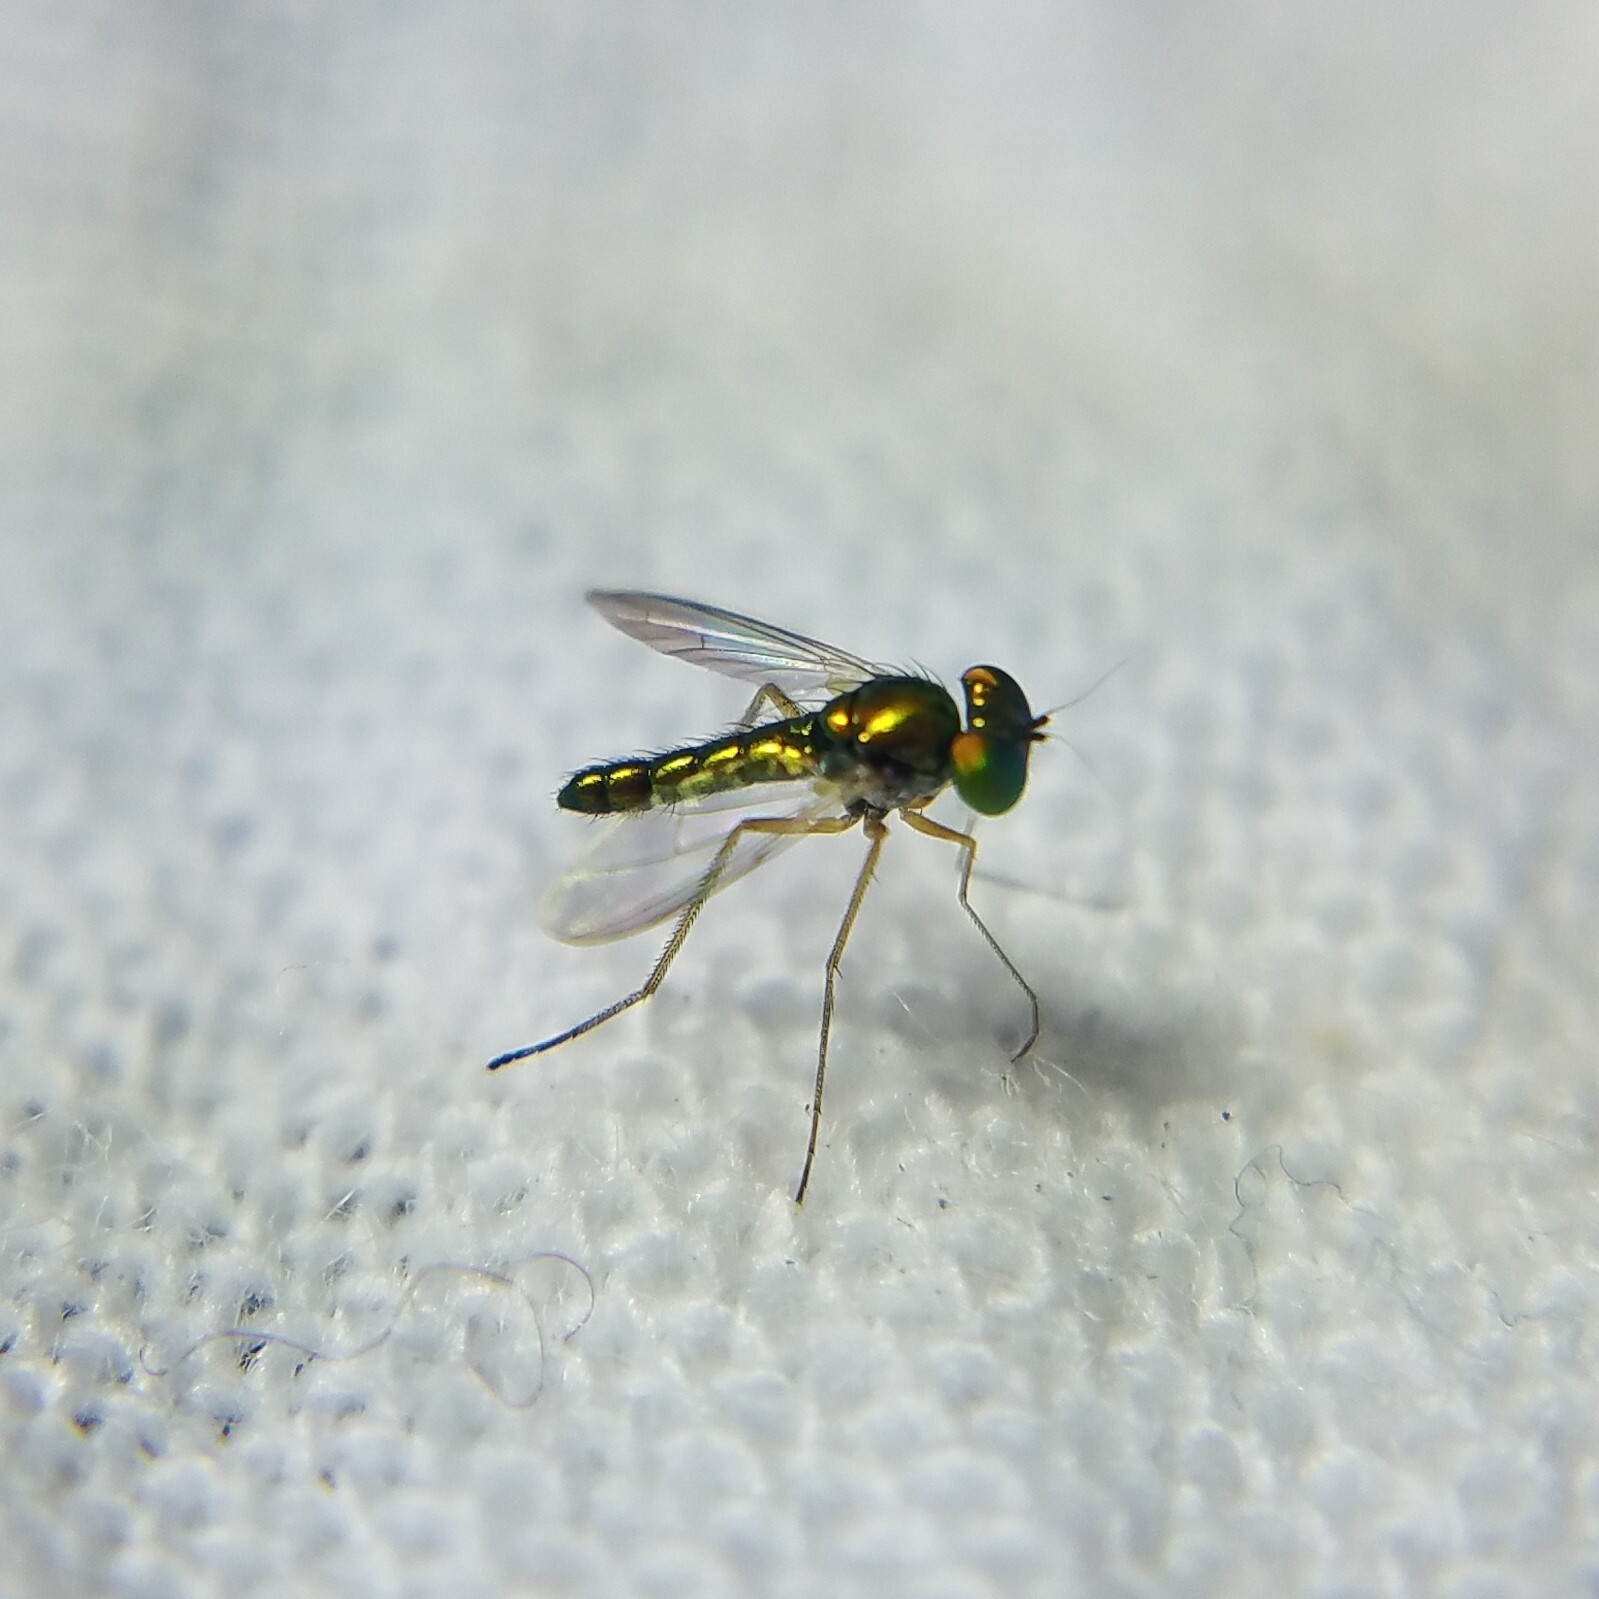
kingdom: Animalia
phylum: Arthropoda
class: Insecta
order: Diptera
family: Dolichopodidae
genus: Condylostylus
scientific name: Condylostylus flavipes
